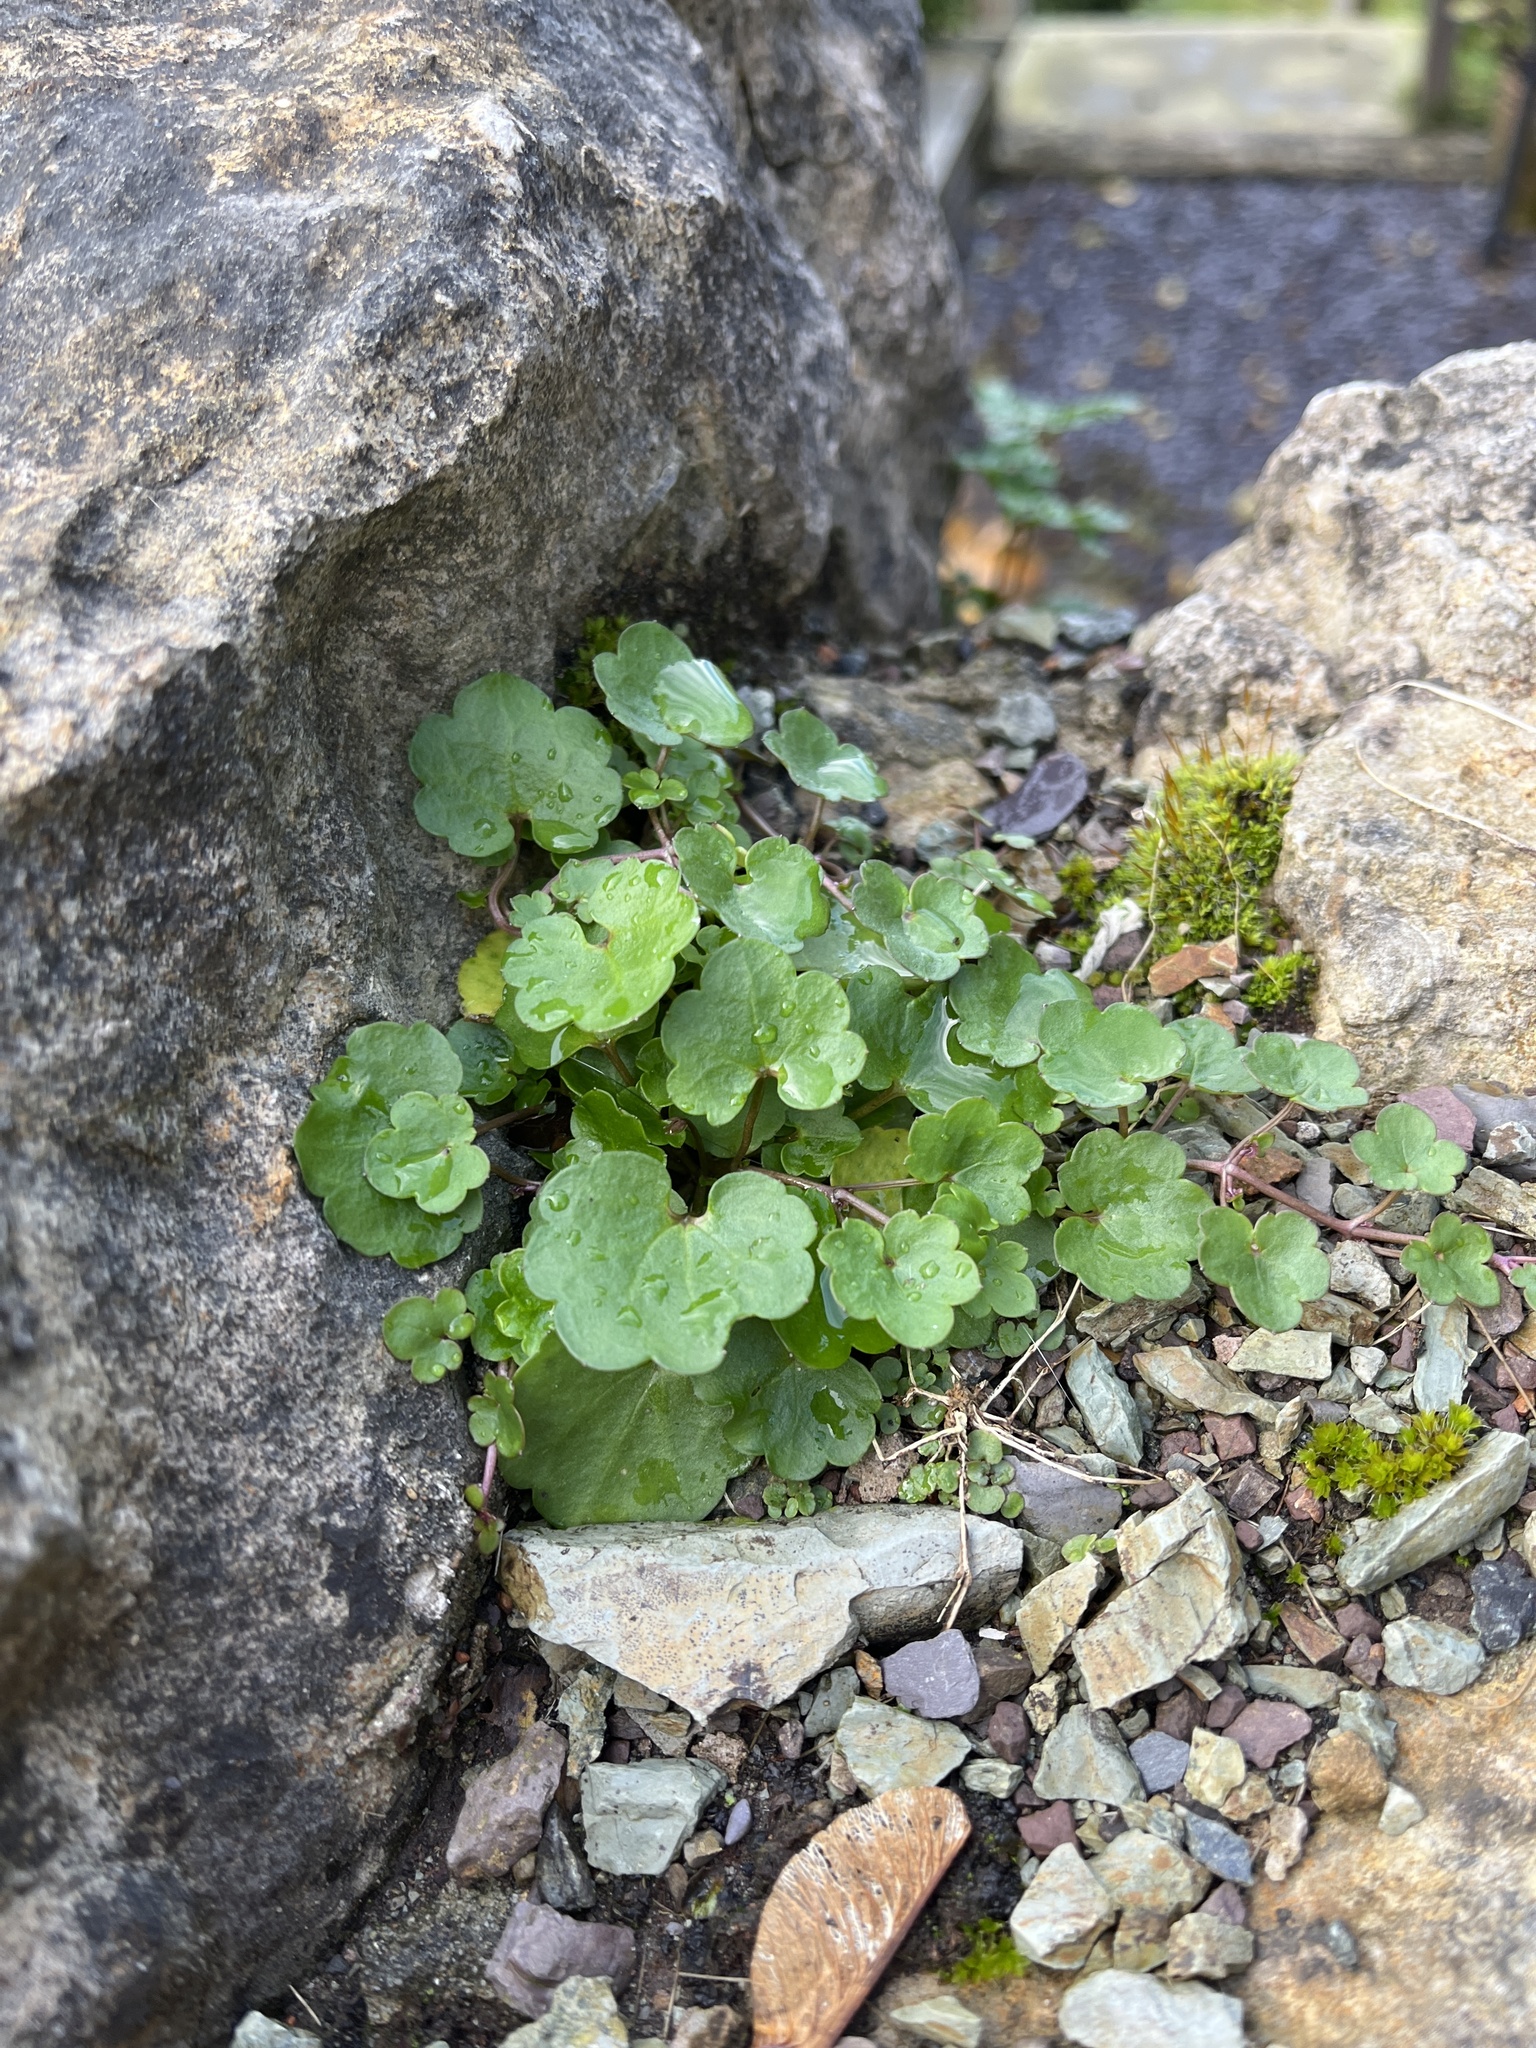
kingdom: Plantae
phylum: Tracheophyta
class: Magnoliopsida
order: Lamiales
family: Plantaginaceae
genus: Cymbalaria
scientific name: Cymbalaria muralis
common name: Ivy-leaved toadflax
